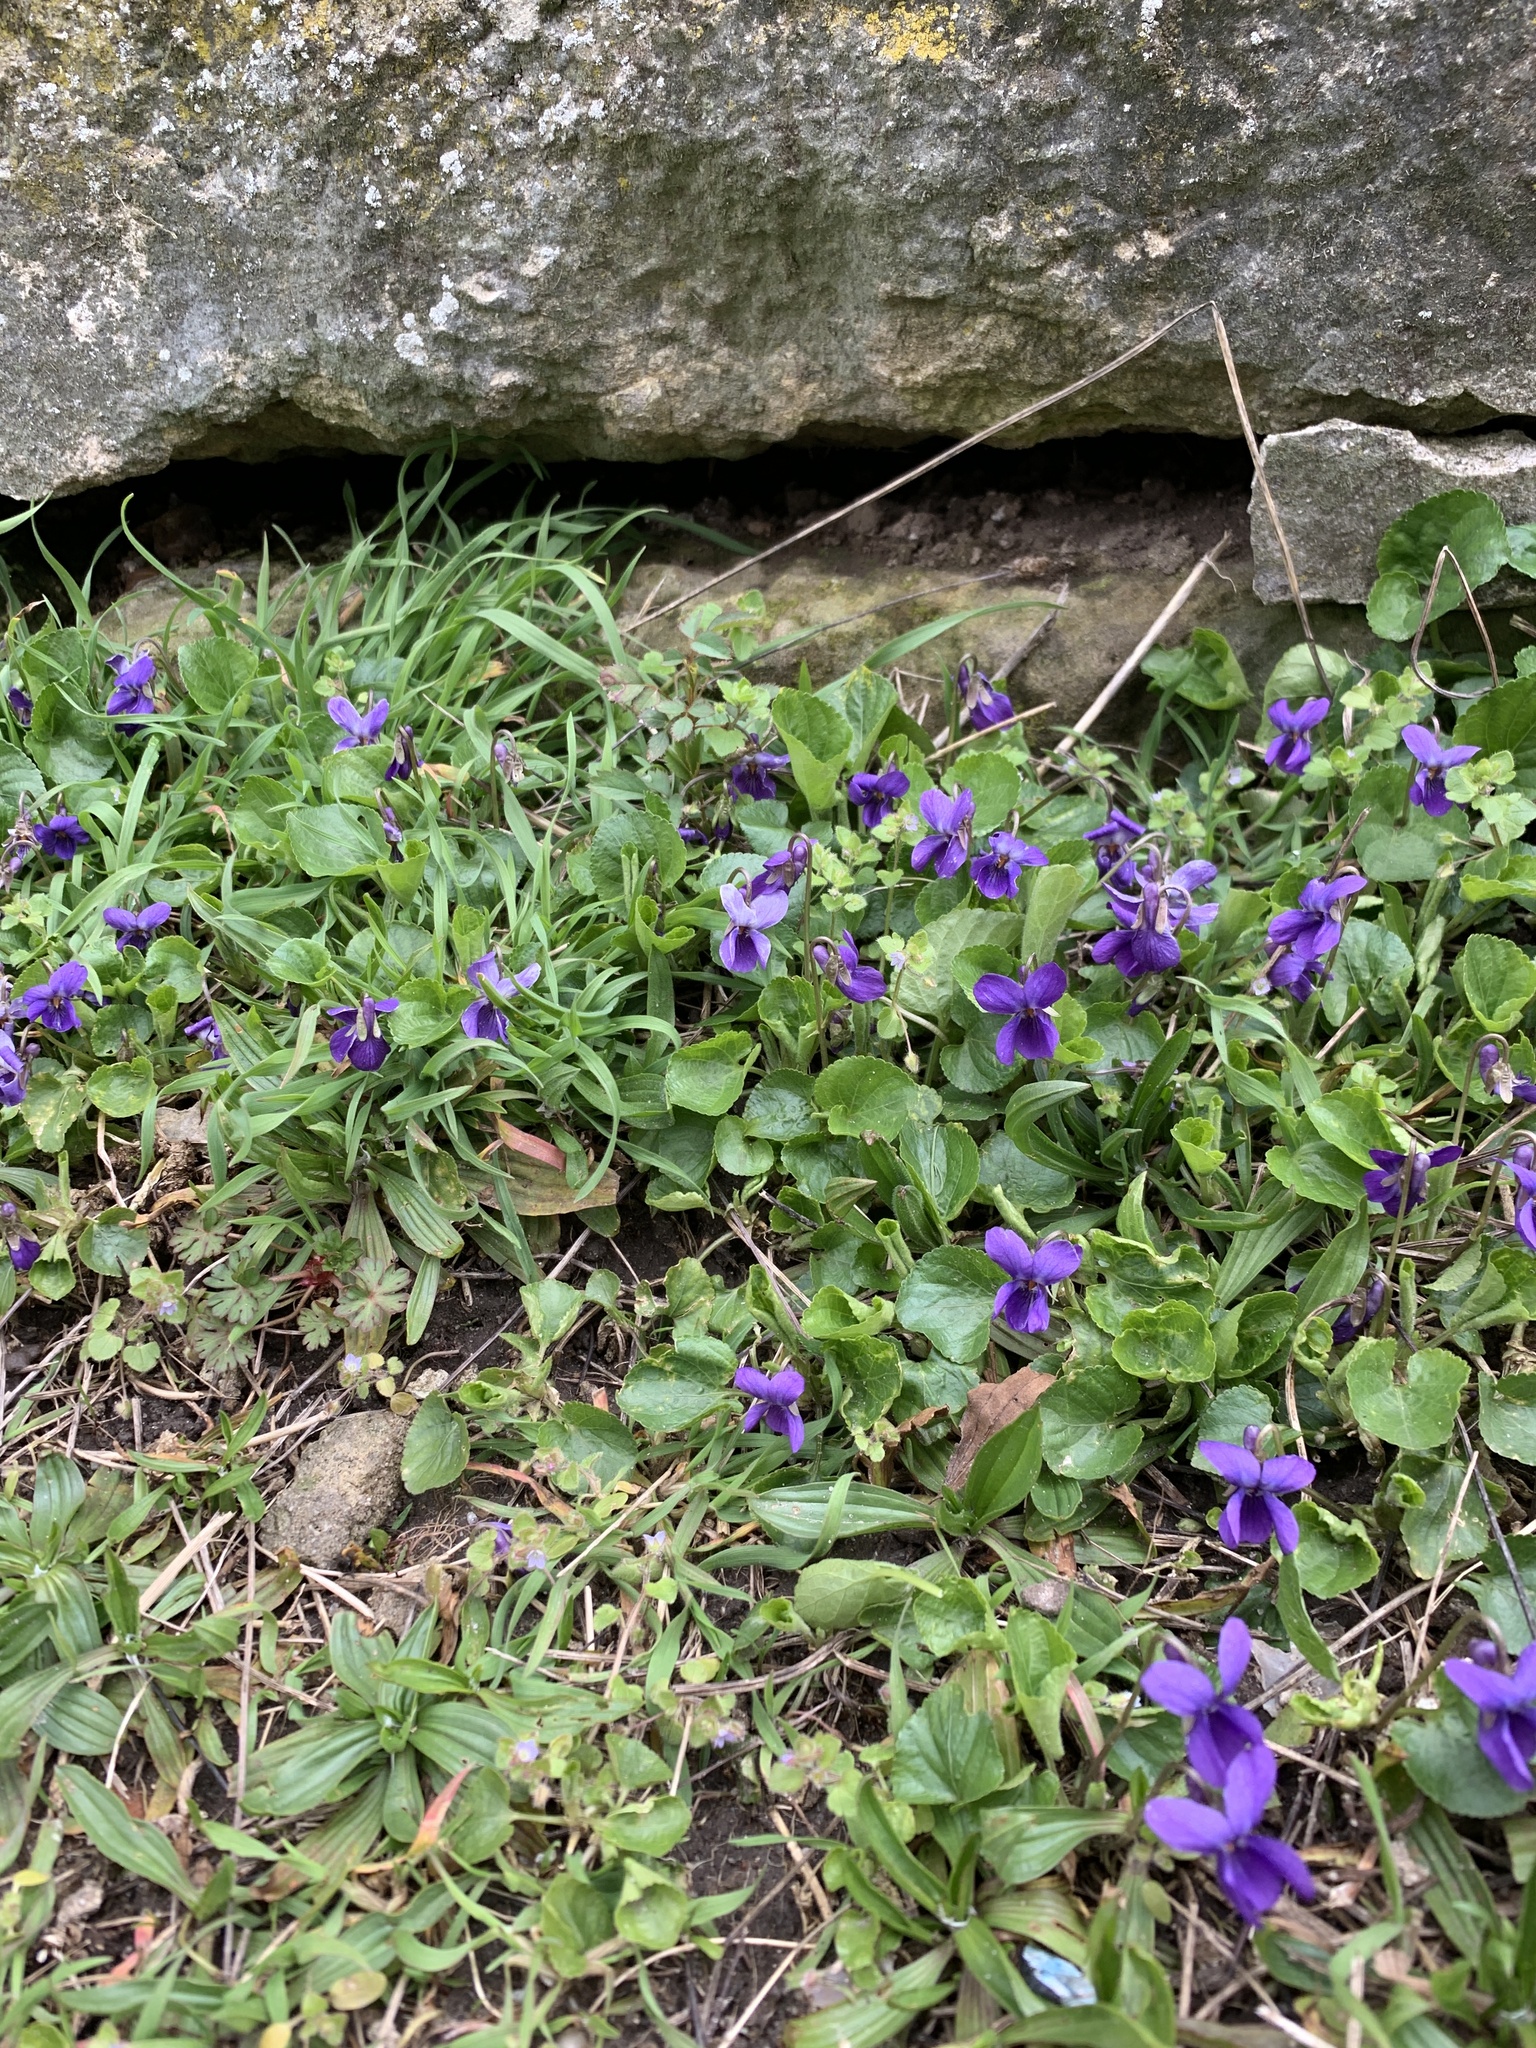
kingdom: Plantae
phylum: Tracheophyta
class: Magnoliopsida
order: Malpighiales
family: Violaceae
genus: Viola
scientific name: Viola odorata
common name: Sweet violet
